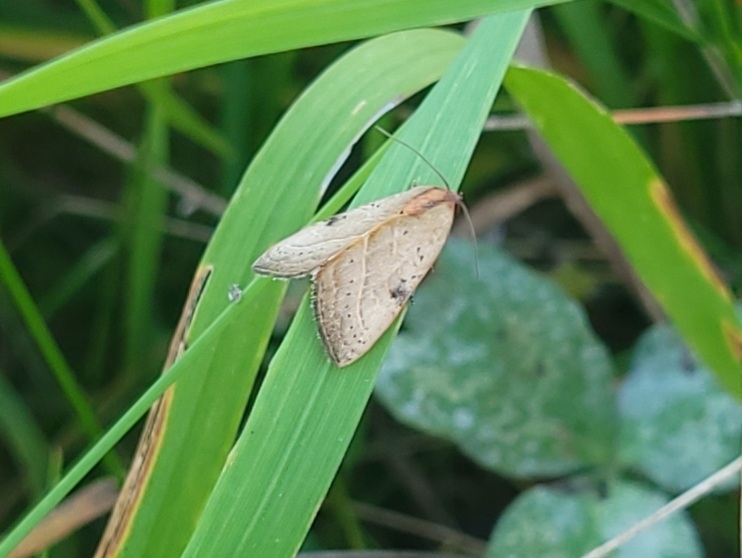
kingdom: Animalia
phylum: Arthropoda
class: Insecta
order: Lepidoptera
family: Noctuidae
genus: Galgula
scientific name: Galgula partita
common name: Wedgeling
